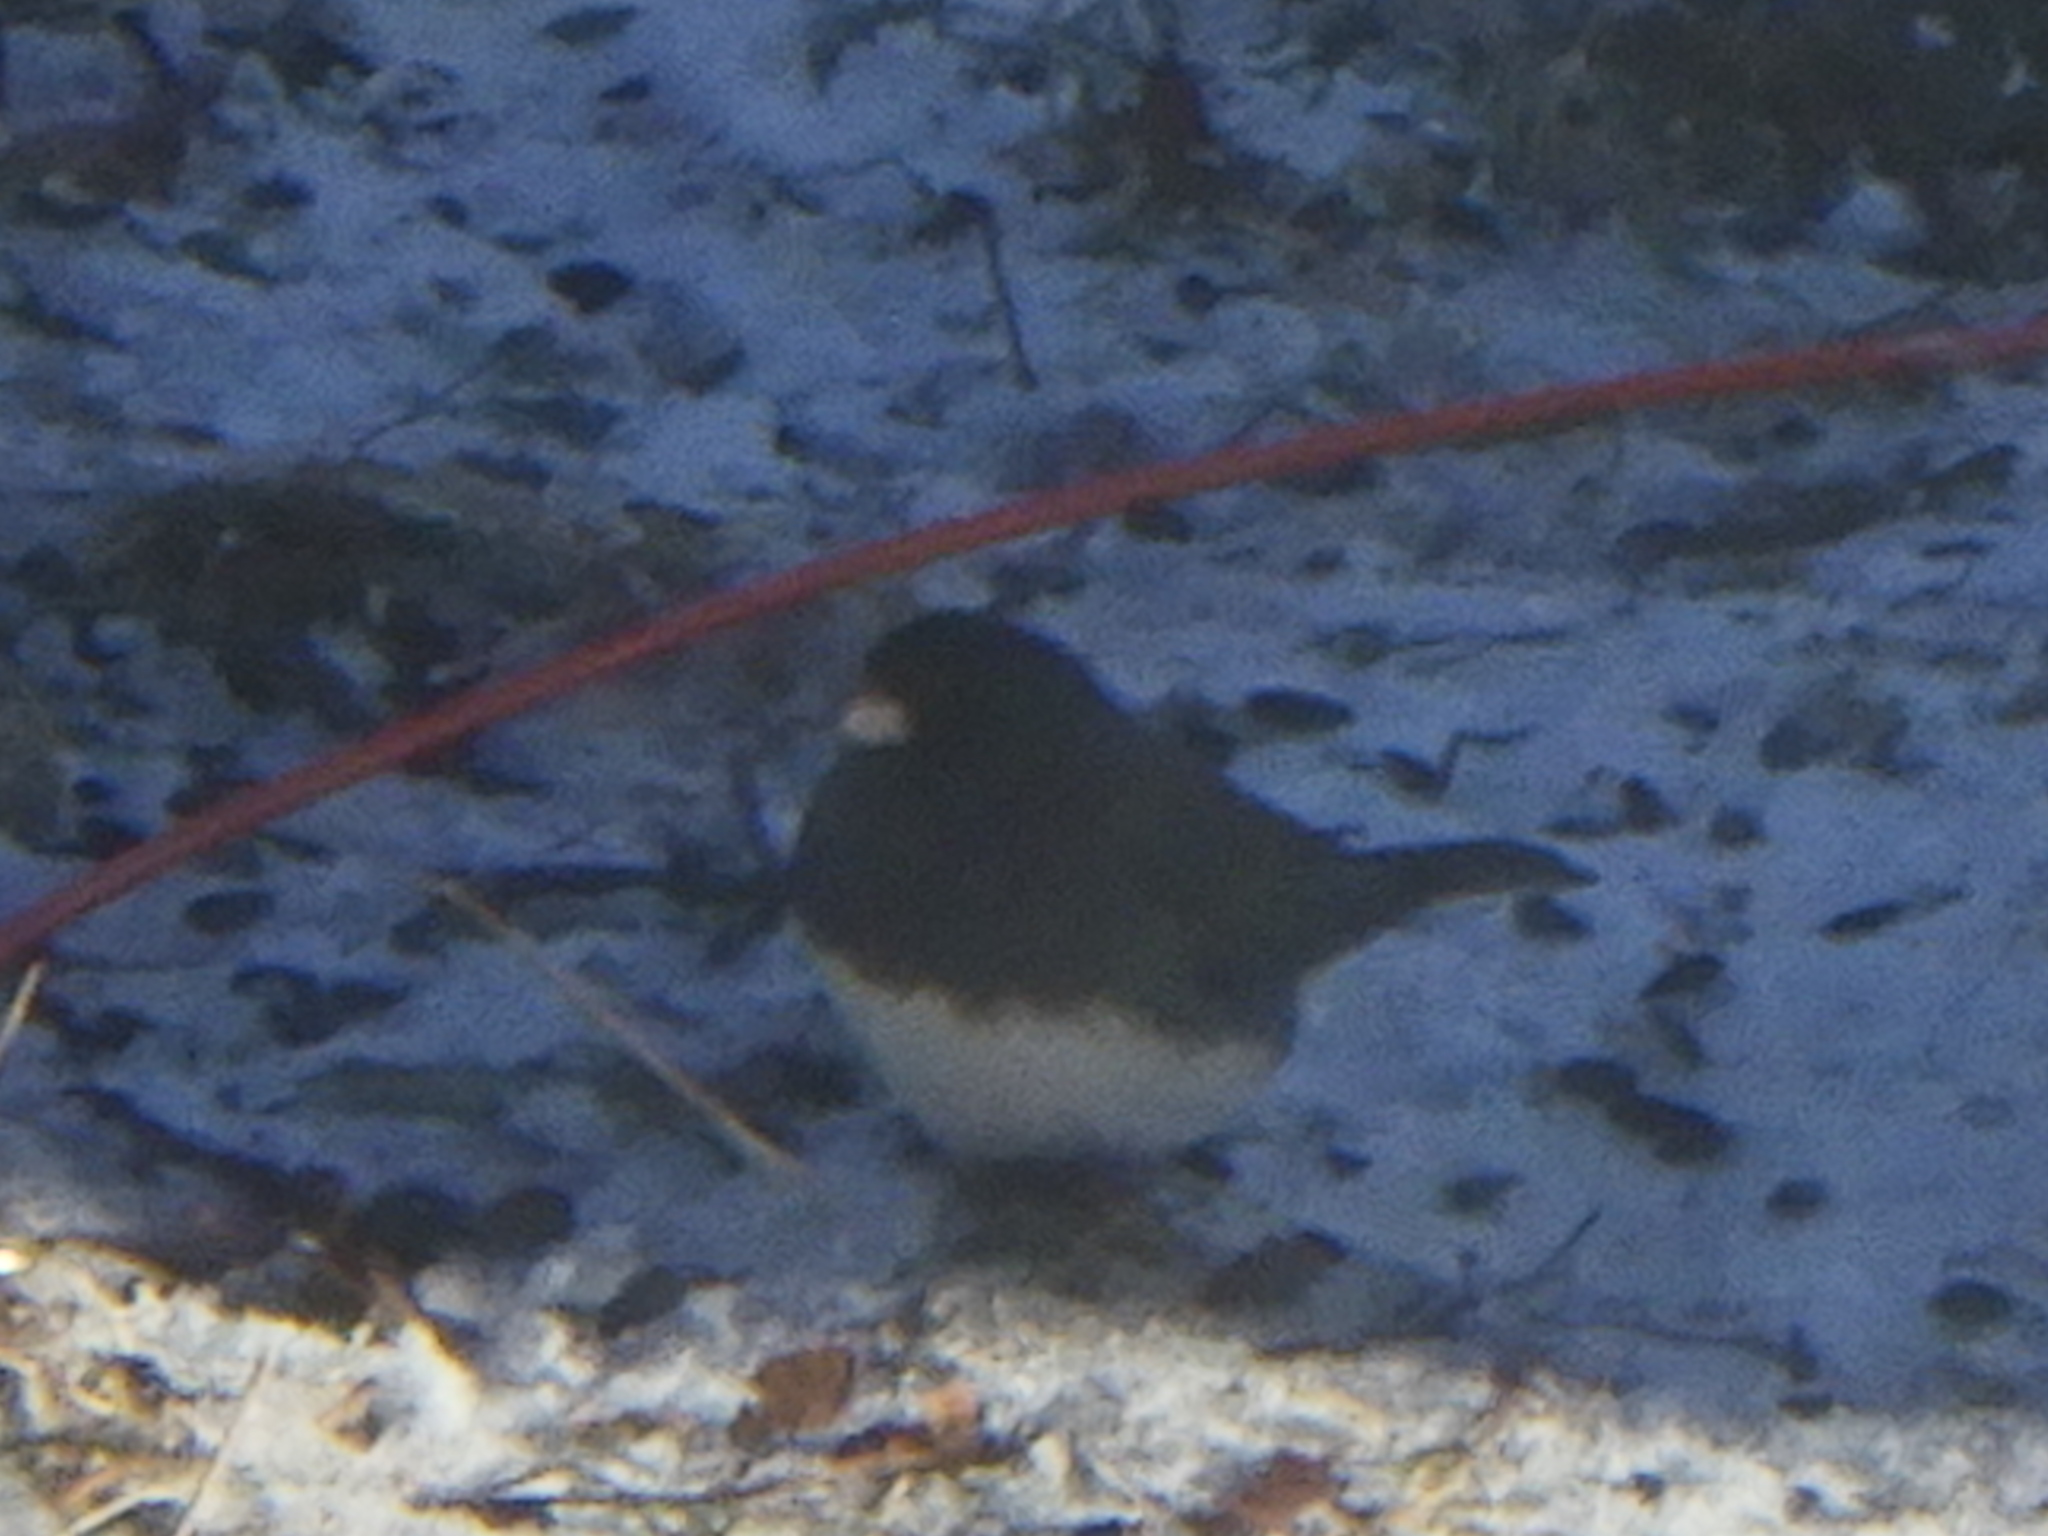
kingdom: Animalia
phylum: Chordata
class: Aves
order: Passeriformes
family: Passerellidae
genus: Junco
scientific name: Junco hyemalis
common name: Dark-eyed junco
